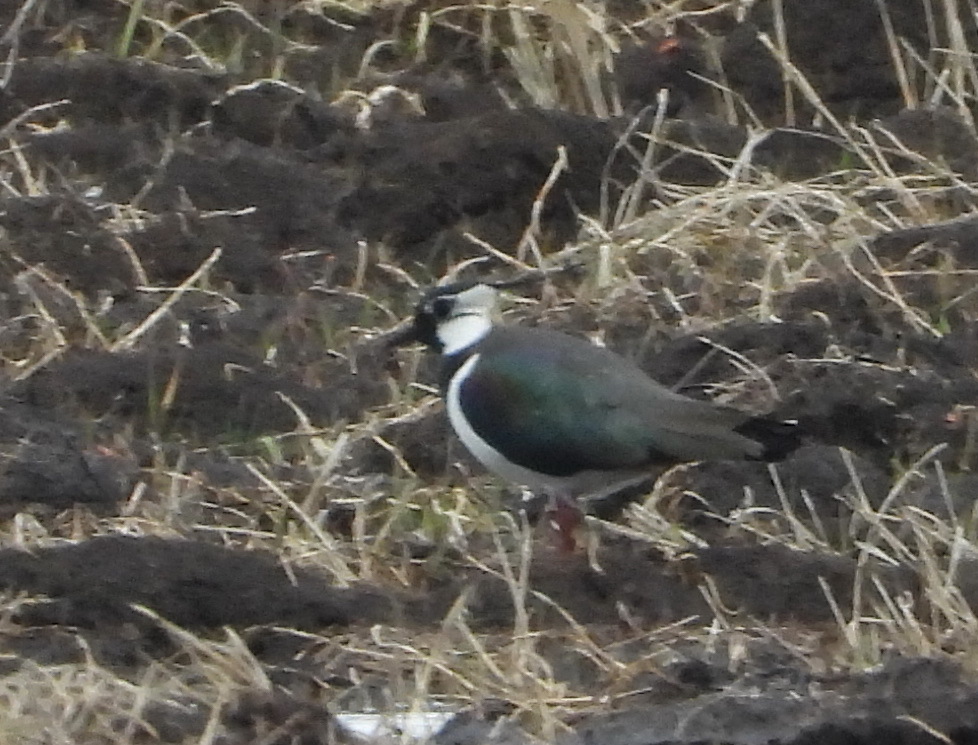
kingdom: Animalia
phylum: Chordata
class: Aves
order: Charadriiformes
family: Charadriidae
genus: Vanellus
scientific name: Vanellus vanellus
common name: Northern lapwing
